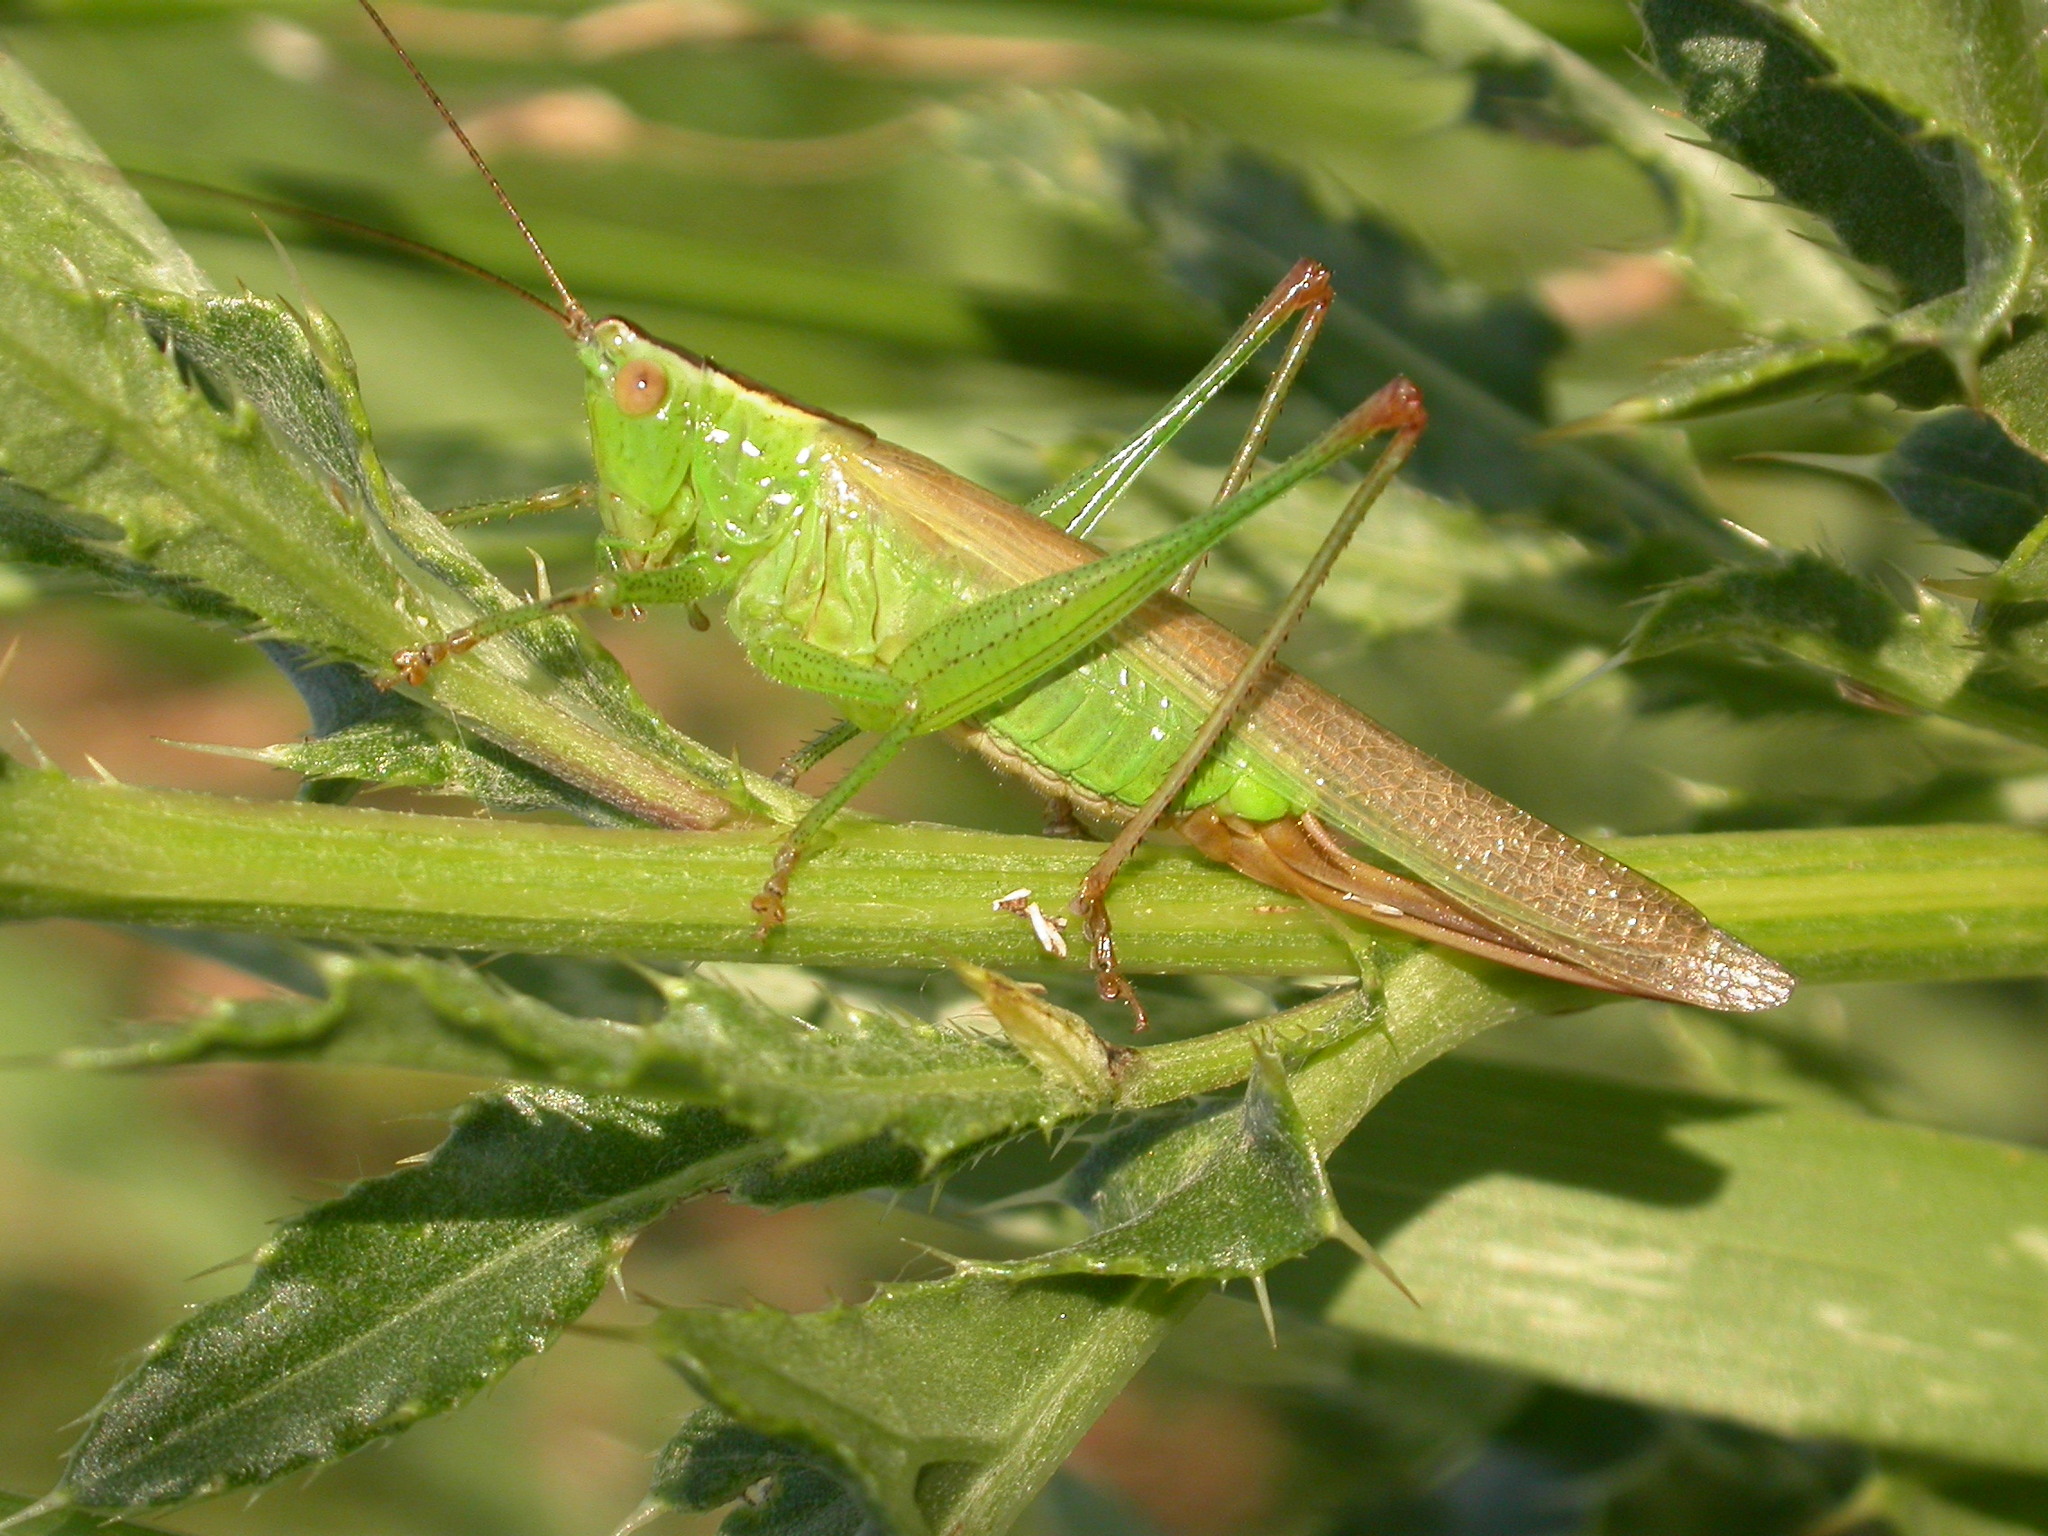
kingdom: Animalia
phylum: Arthropoda
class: Insecta
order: Orthoptera
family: Tettigoniidae
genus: Conocephalus
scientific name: Conocephalus fuscus
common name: Long-winged conehead
